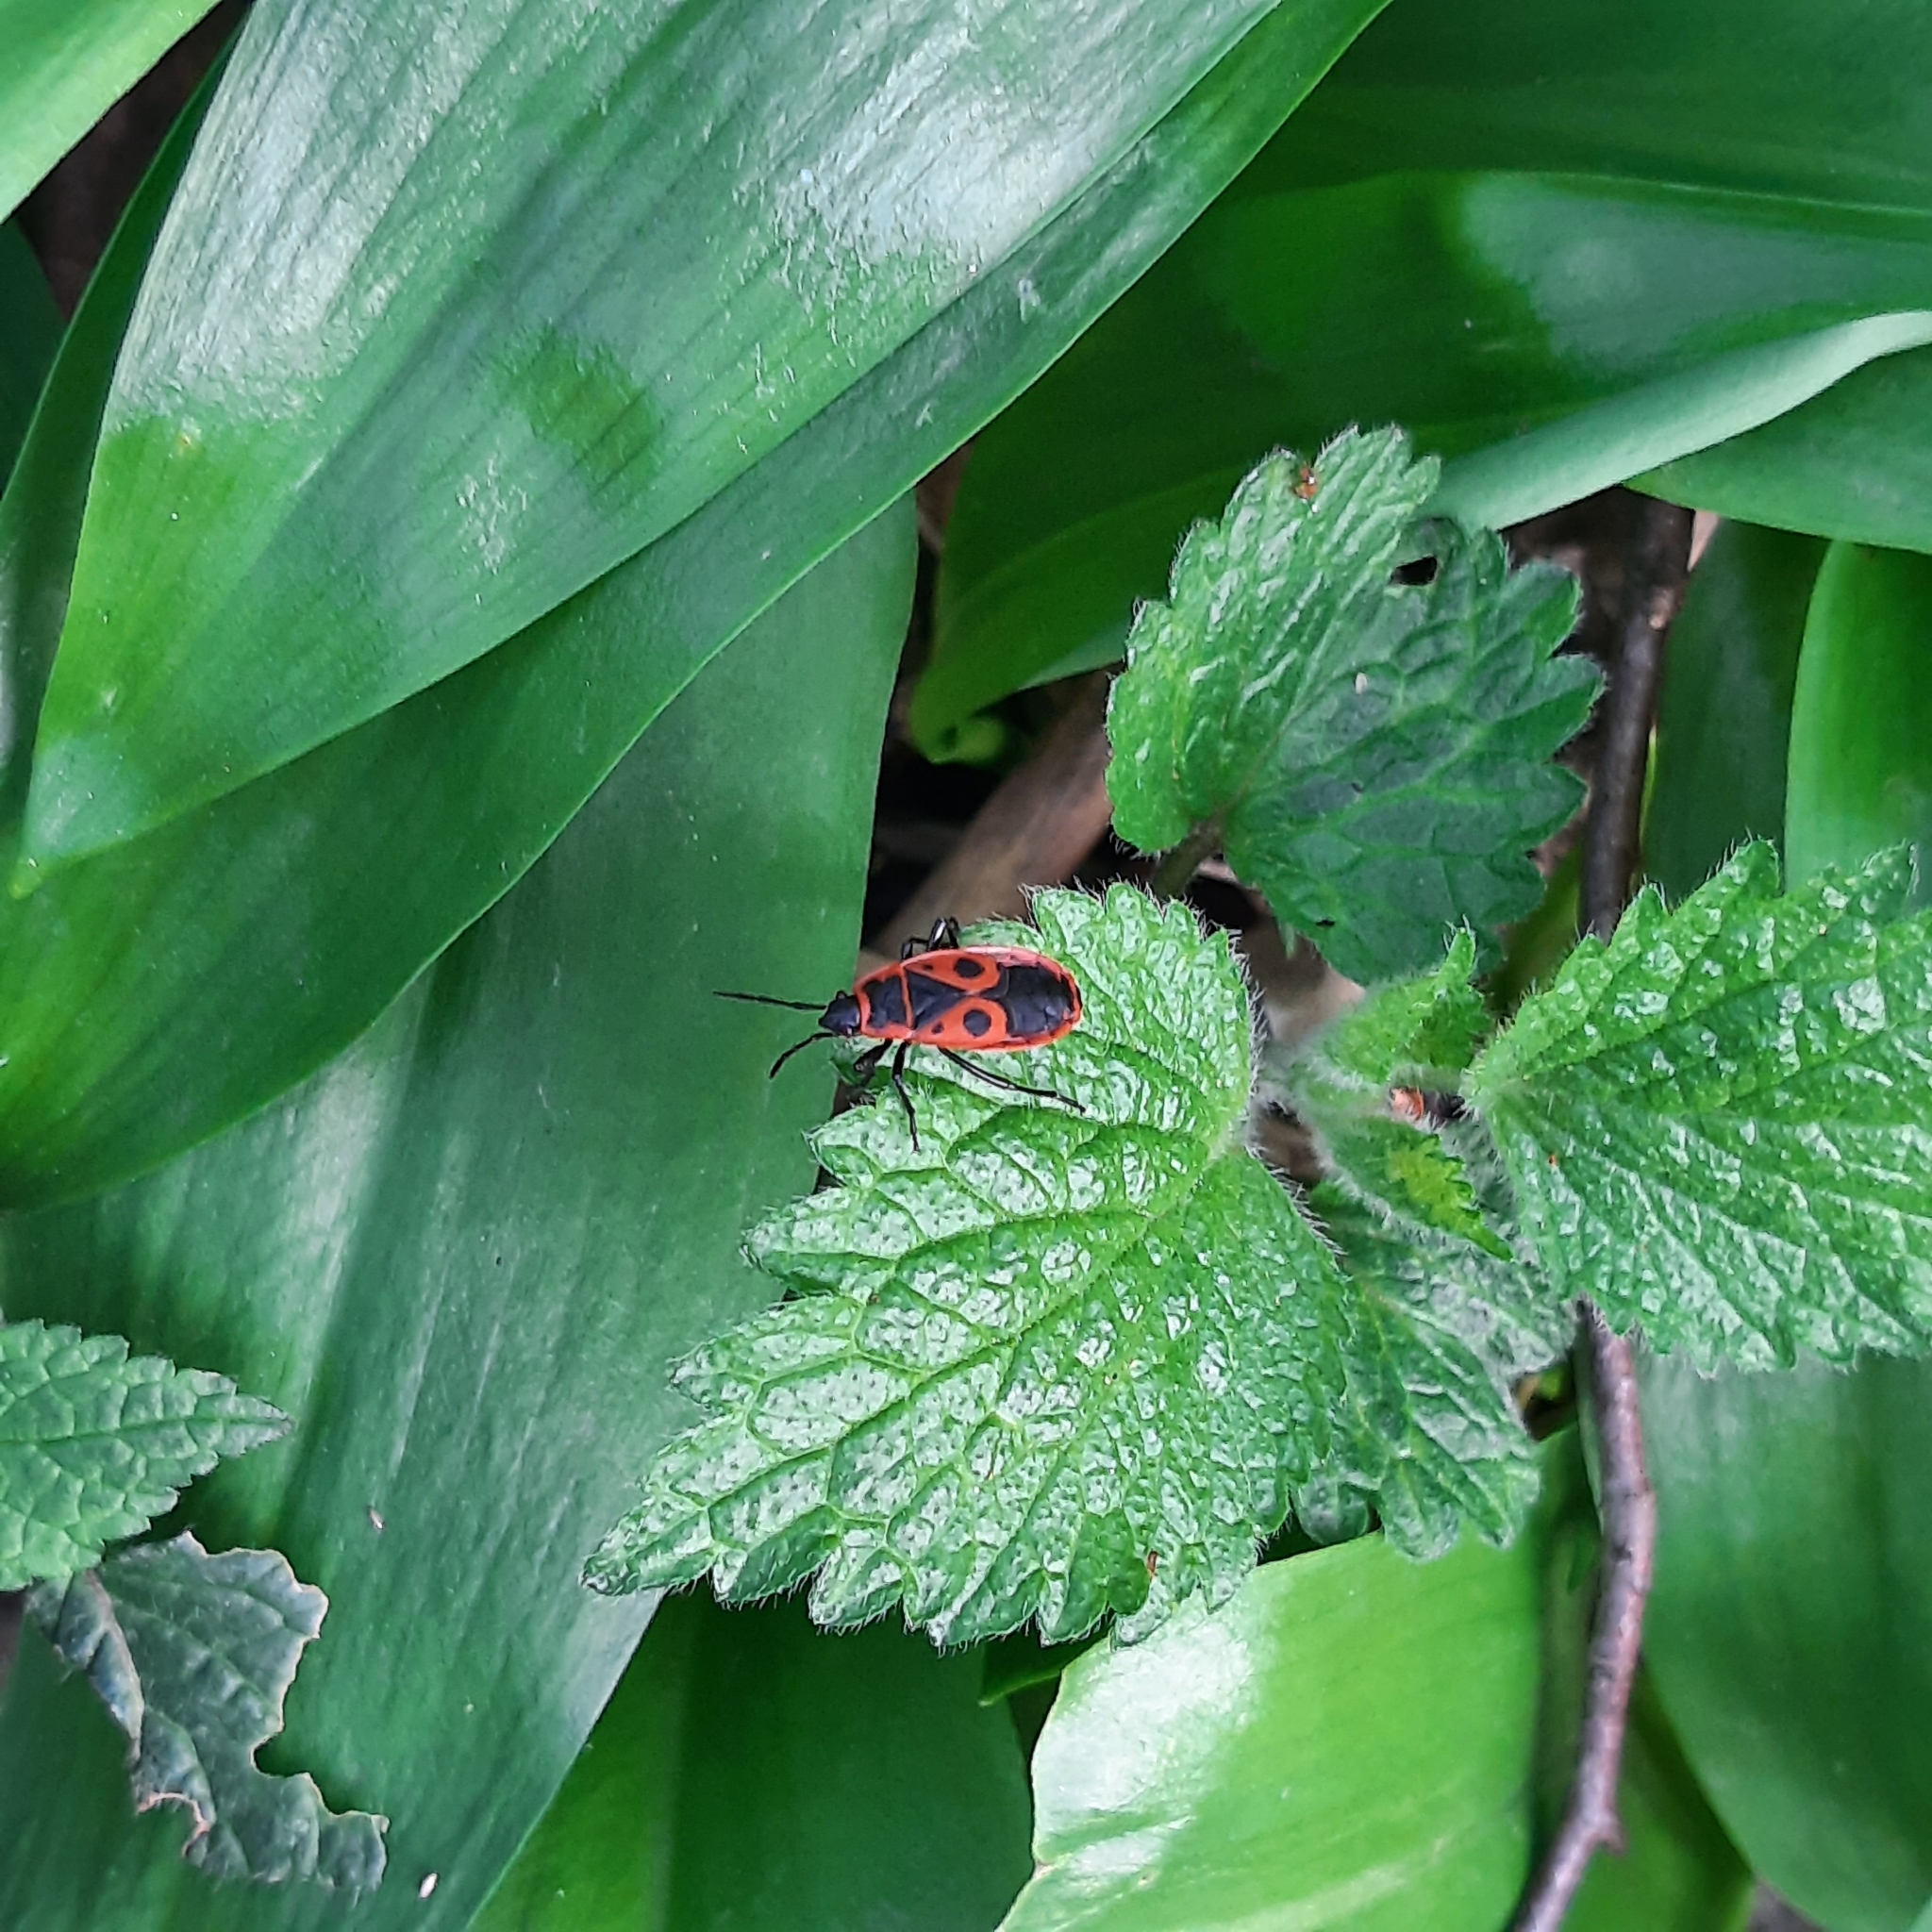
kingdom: Animalia
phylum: Arthropoda
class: Insecta
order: Hemiptera
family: Pyrrhocoridae
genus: Pyrrhocoris
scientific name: Pyrrhocoris apterus
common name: Firebug
